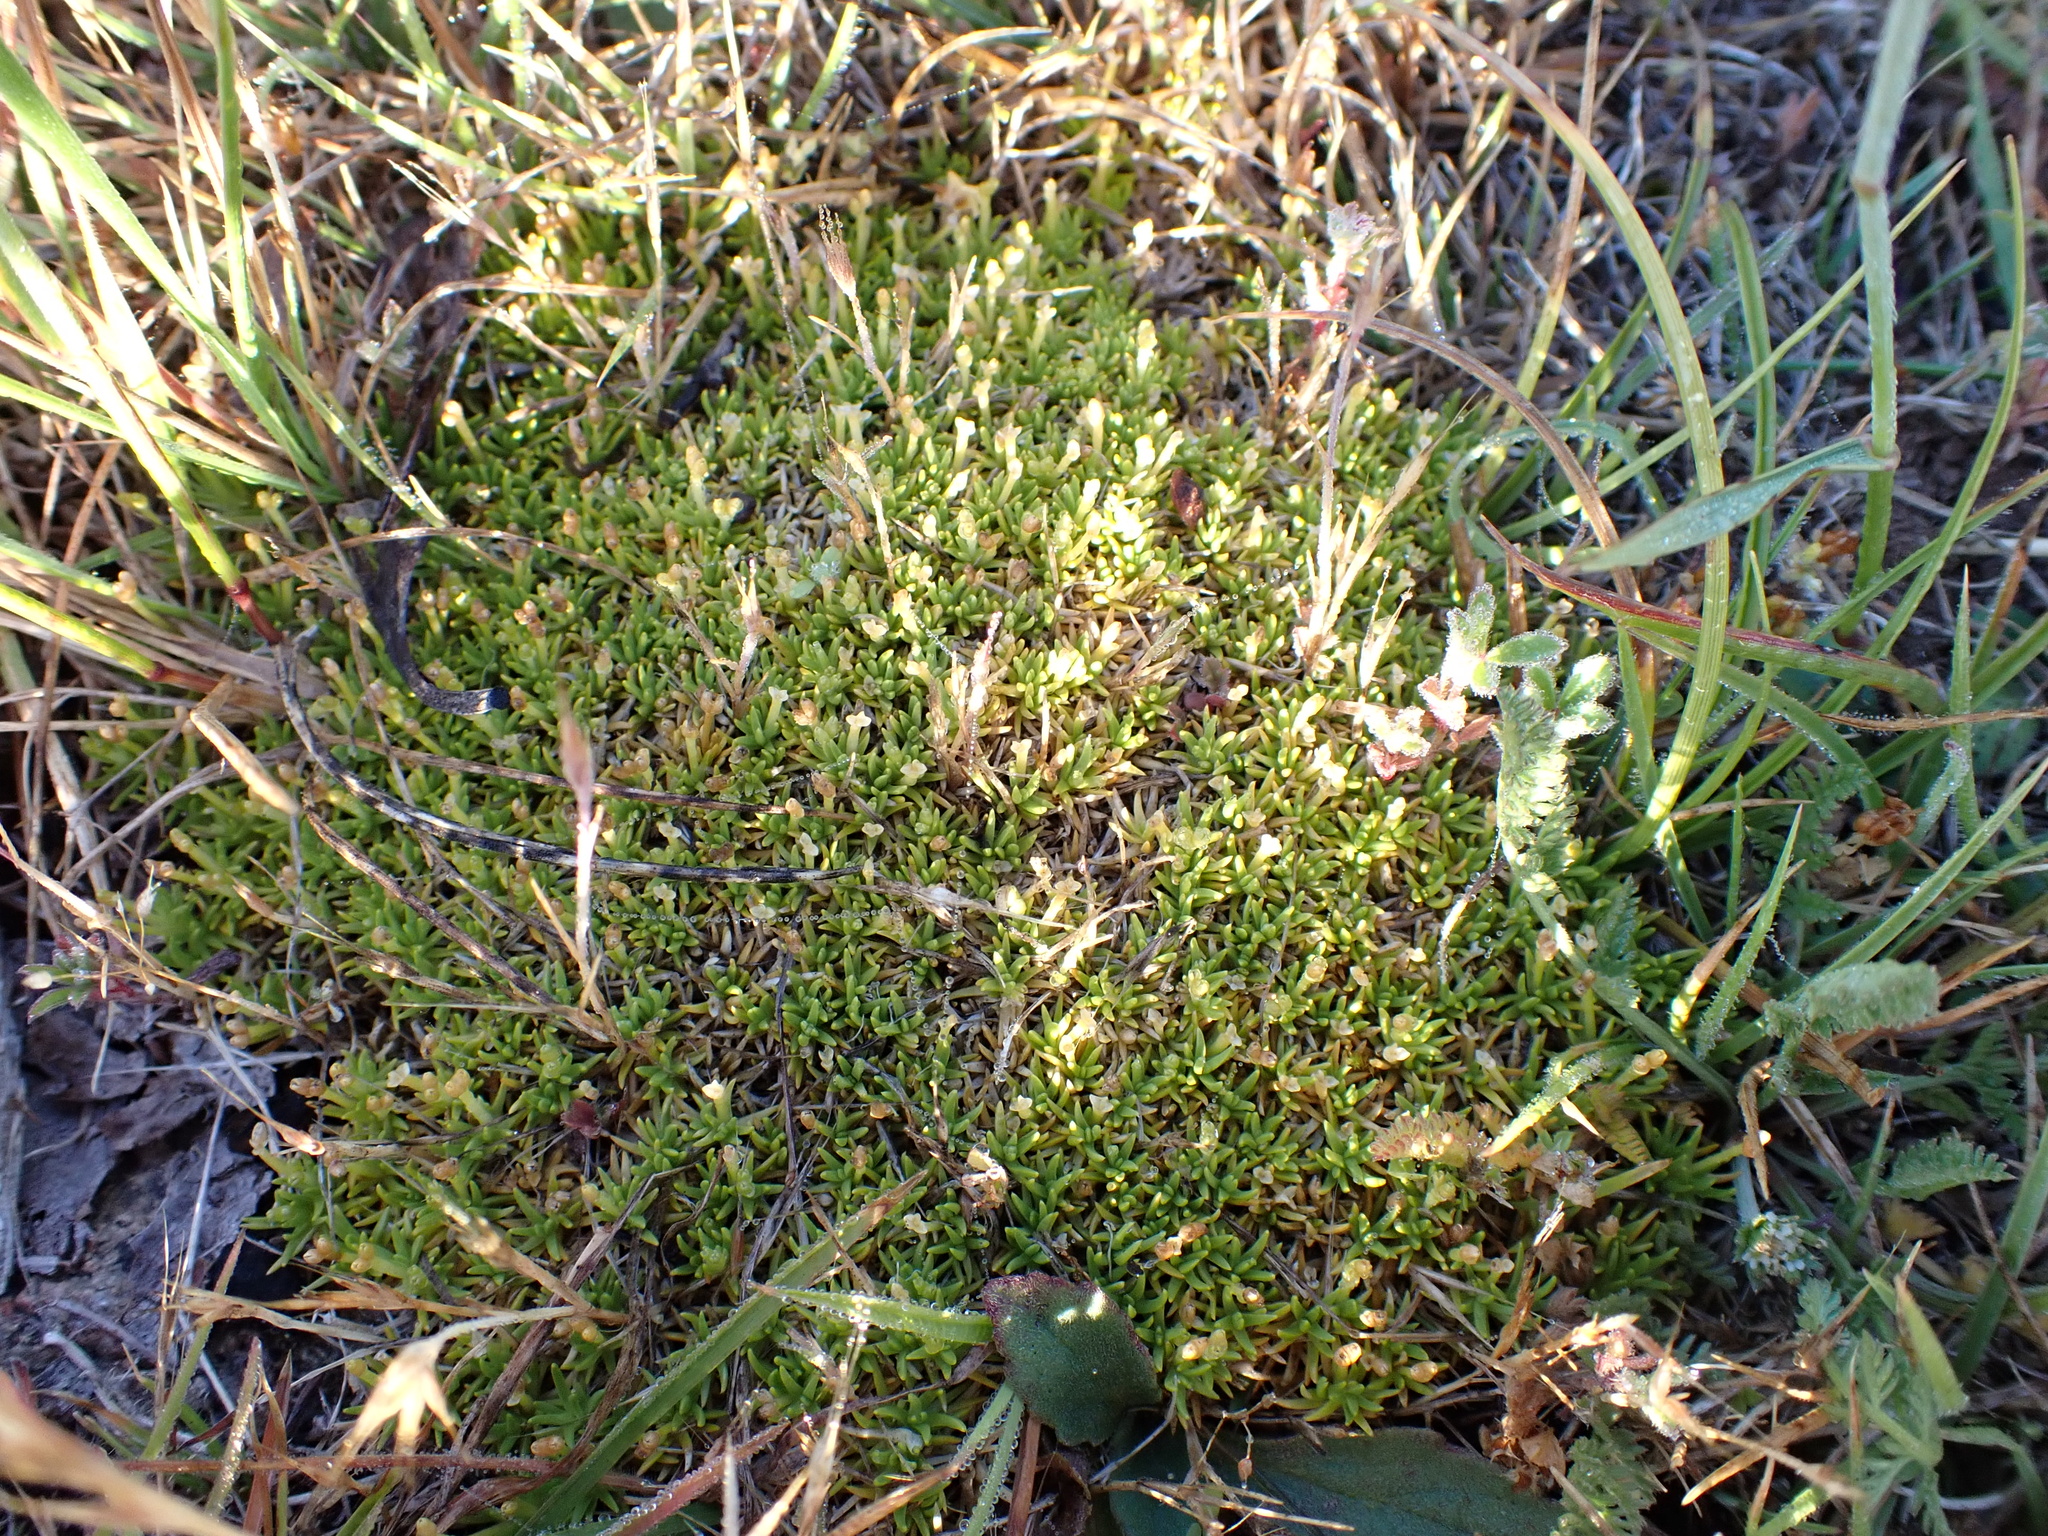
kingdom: Plantae
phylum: Tracheophyta
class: Magnoliopsida
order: Caryophyllales
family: Caryophyllaceae
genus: Scleranthus
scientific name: Scleranthus biflorus
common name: Two-flower knawel
